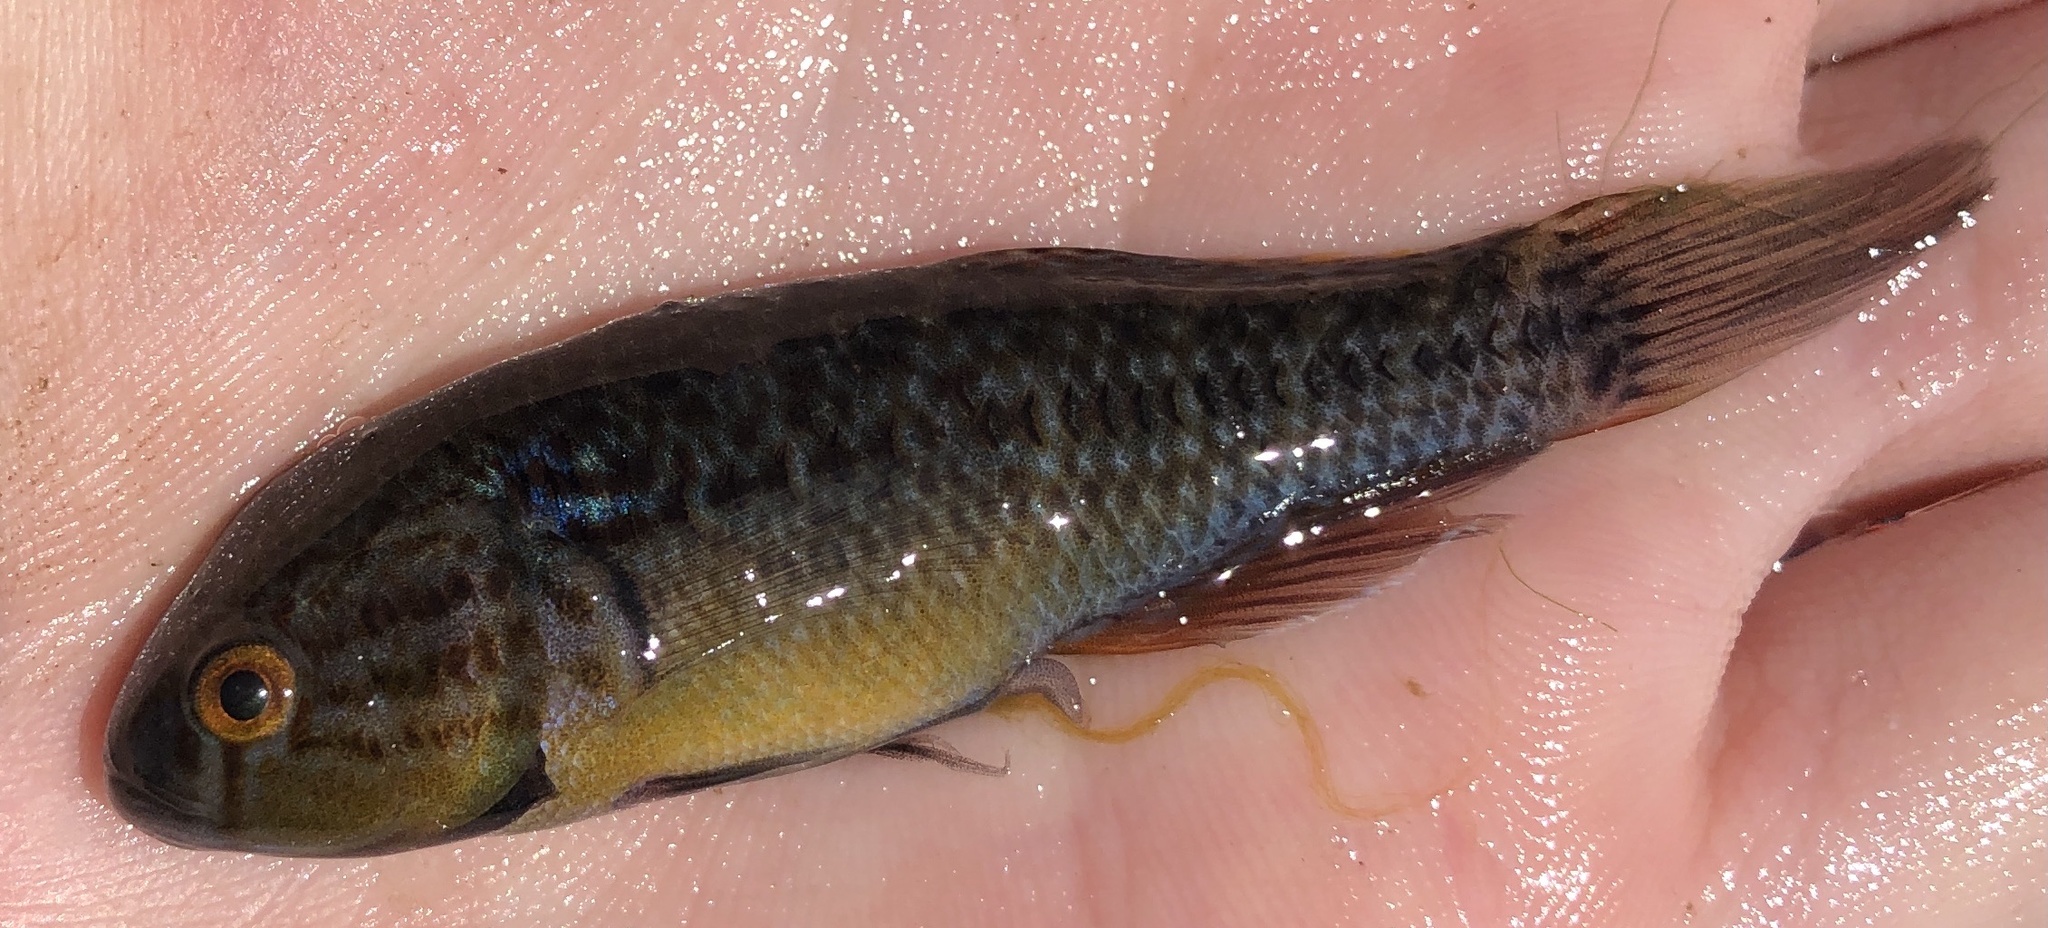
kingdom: Animalia
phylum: Chordata
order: Perciformes
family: Eleotridae
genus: Dormitator
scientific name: Dormitator maculatus
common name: Fat sleeper
